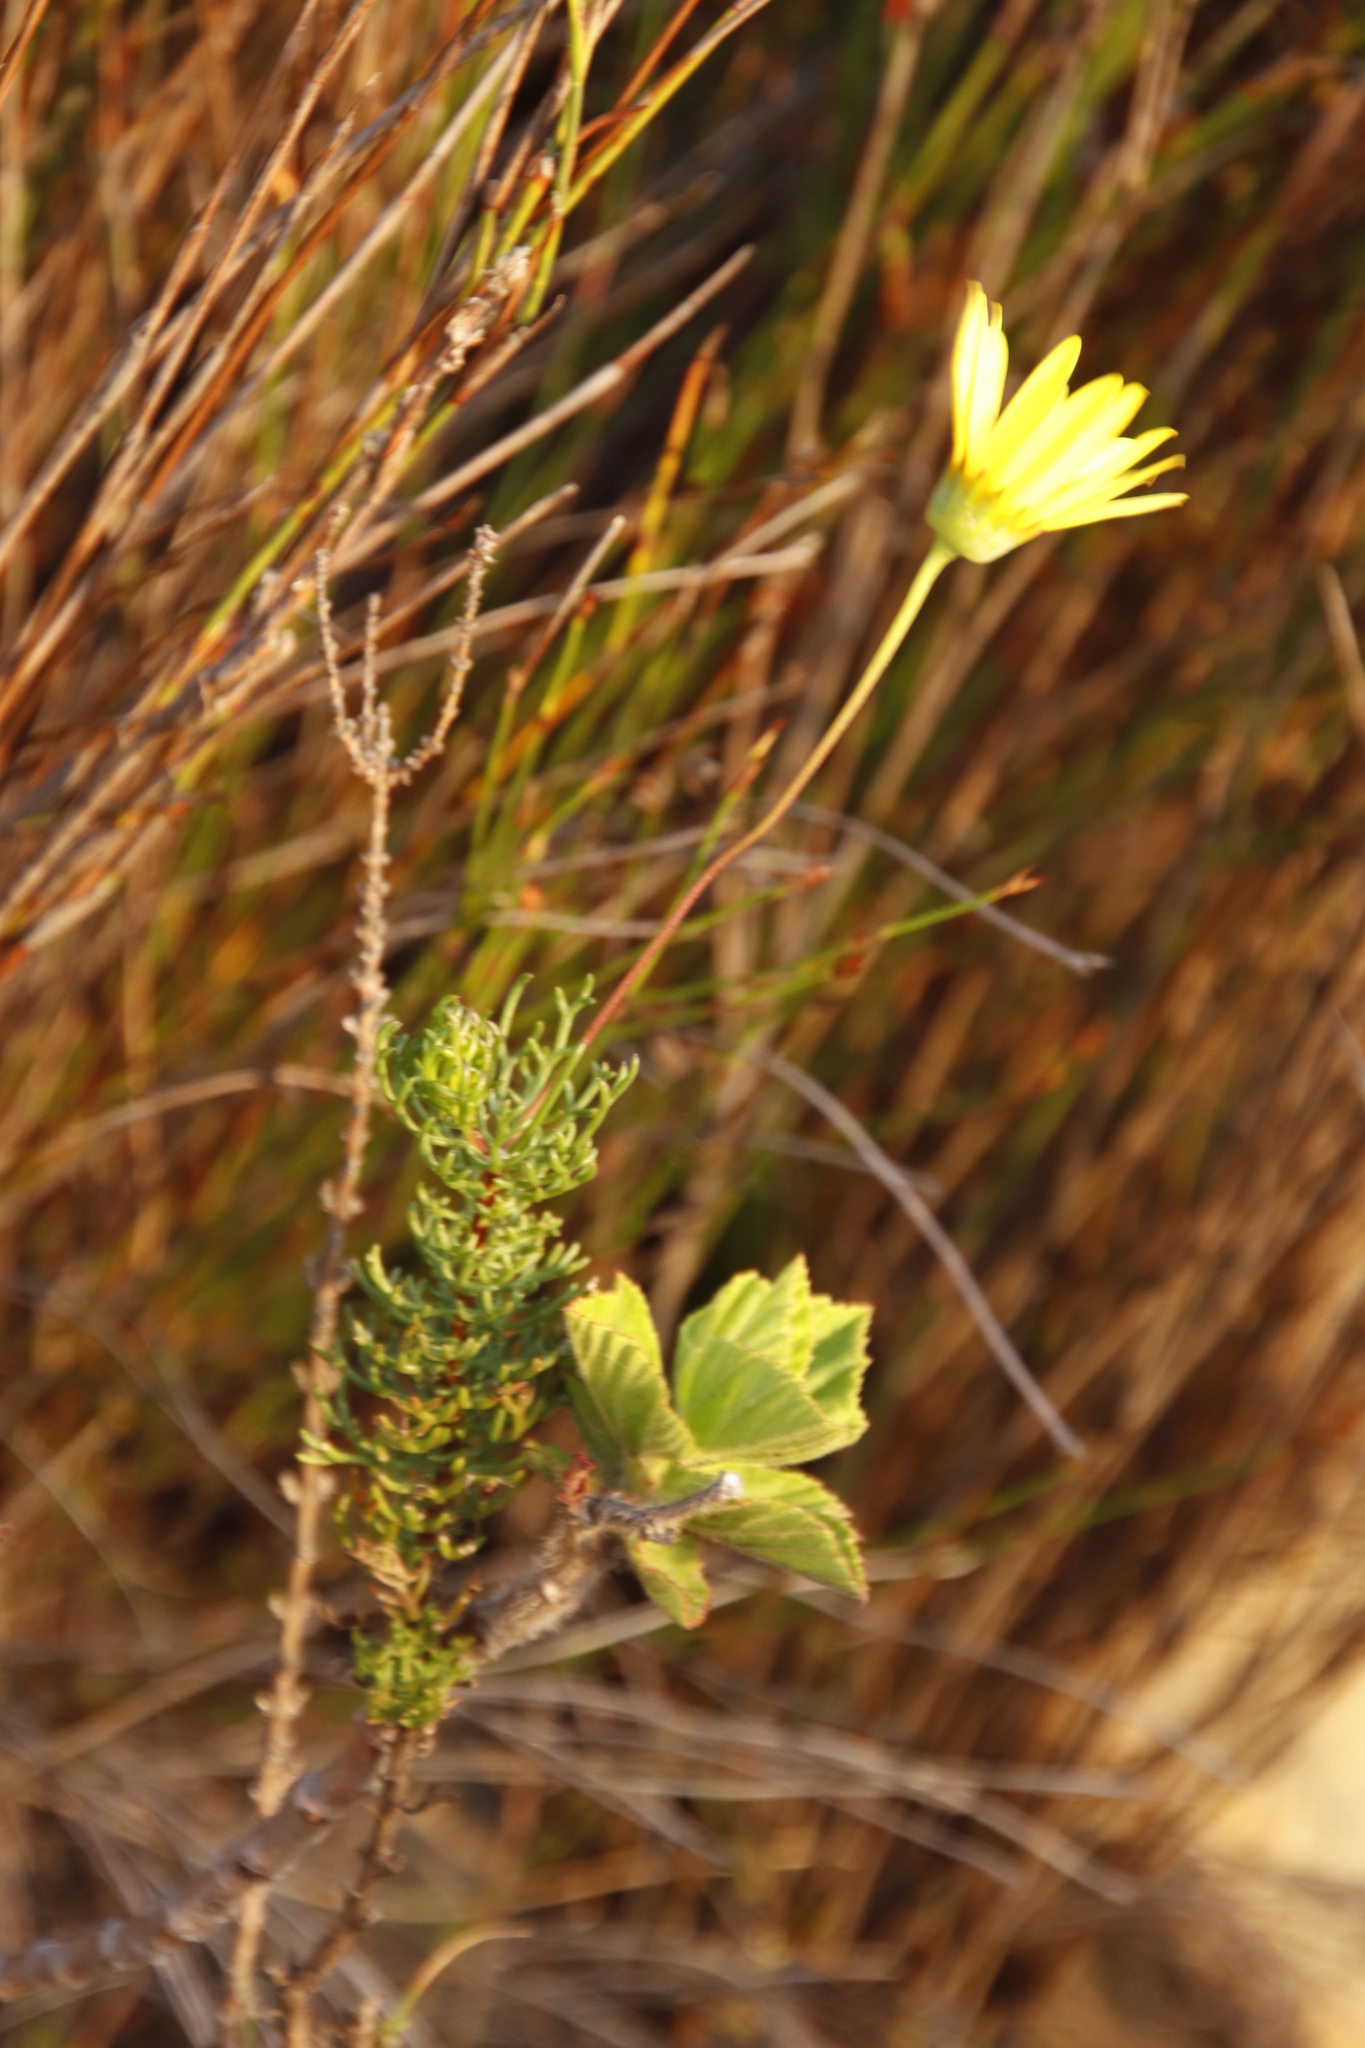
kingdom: Plantae
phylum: Tracheophyta
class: Magnoliopsida
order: Asterales
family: Asteraceae
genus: Euryops
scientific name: Euryops abrotanifolius
